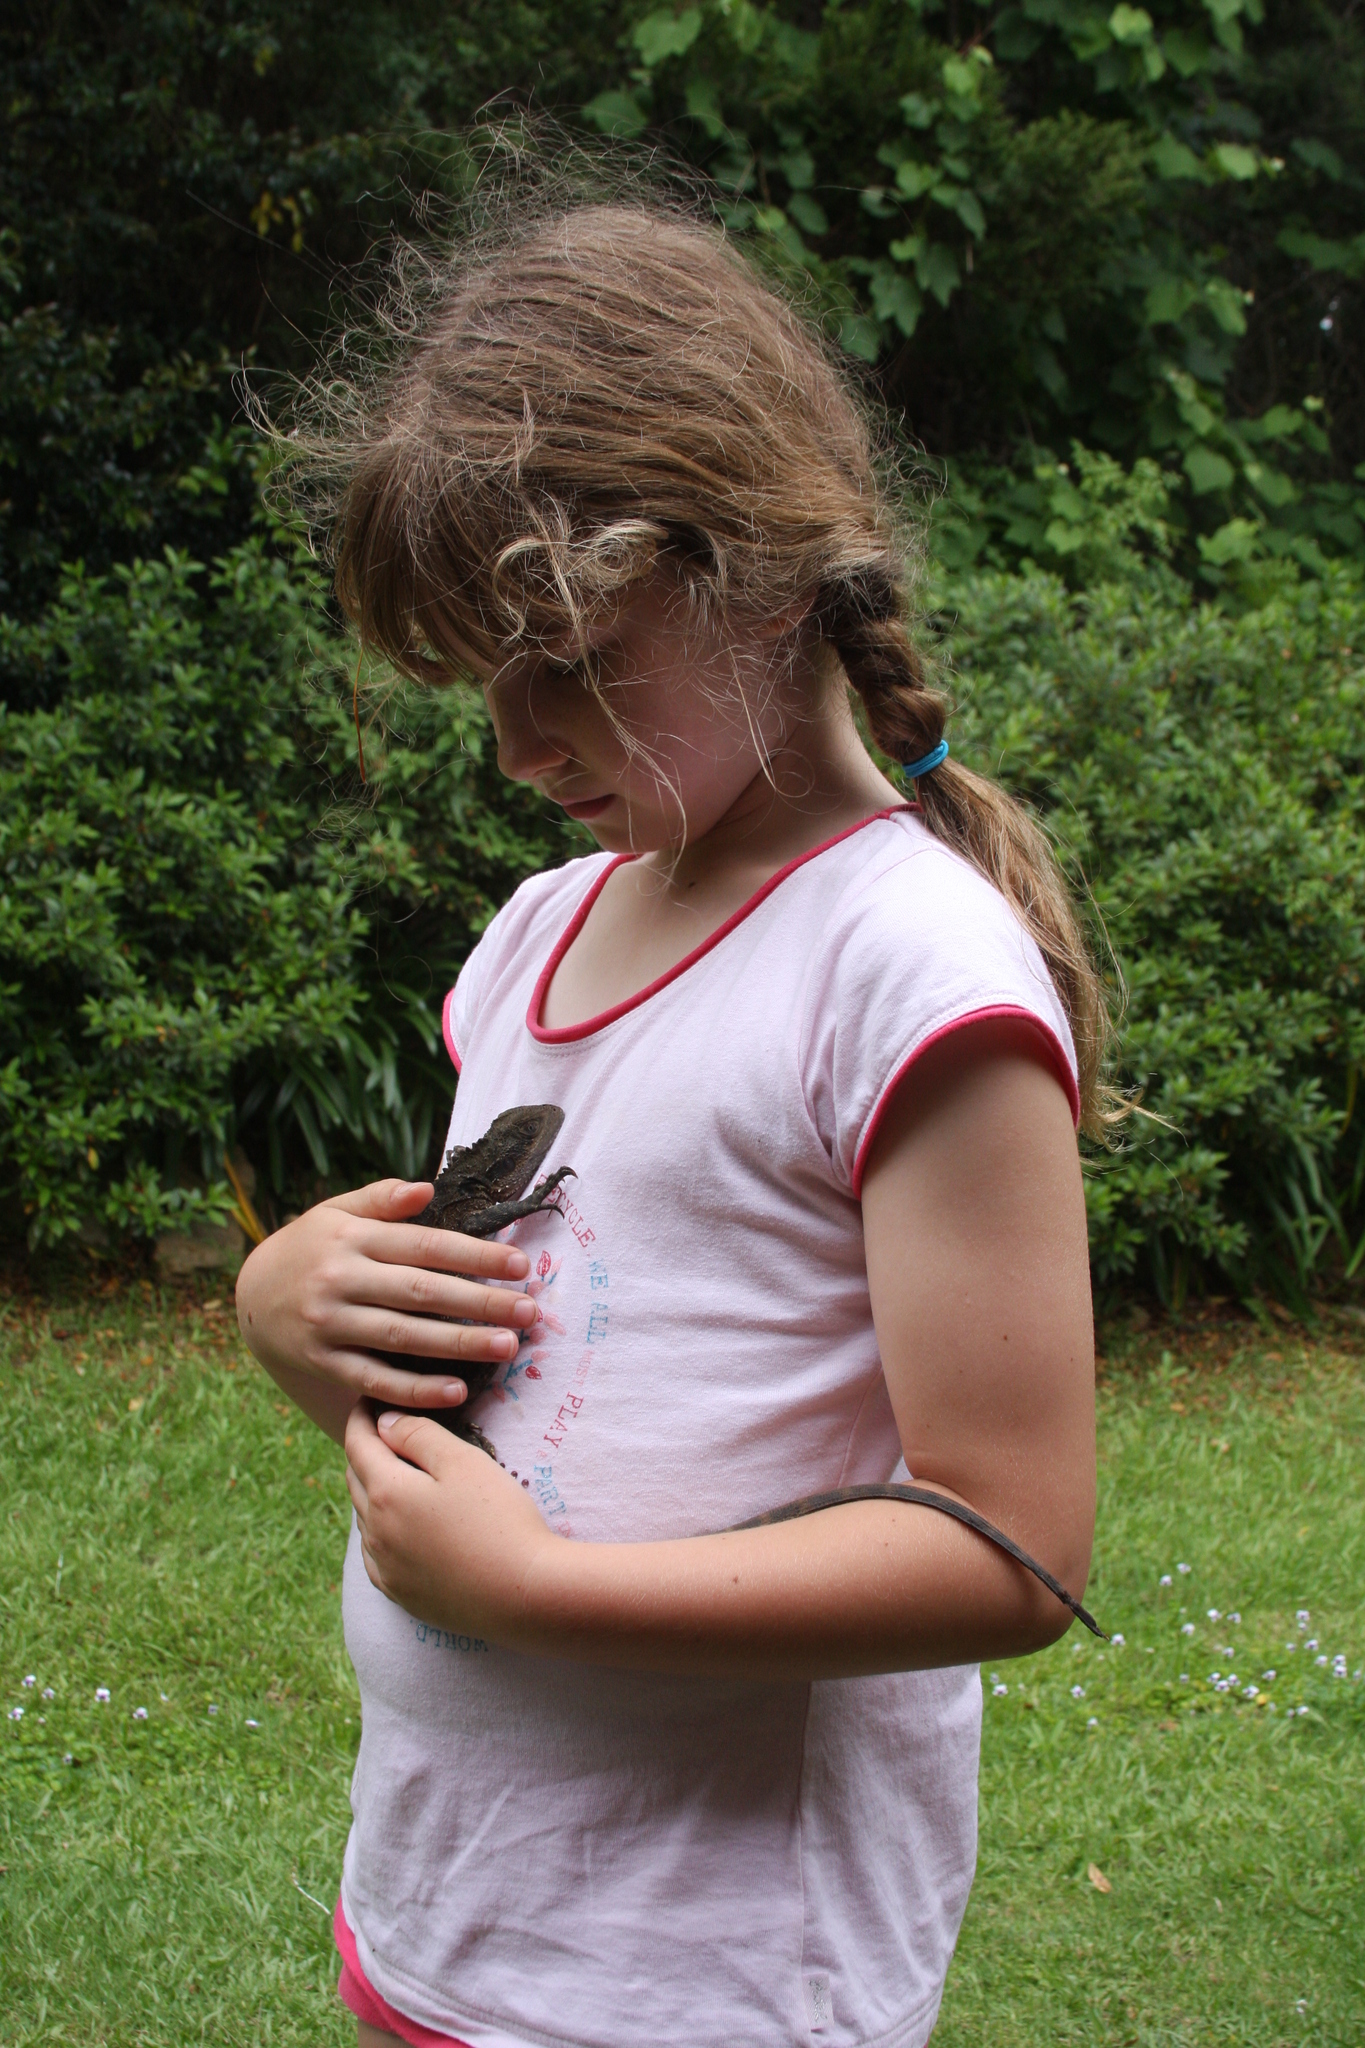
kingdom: Animalia
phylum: Chordata
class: Squamata
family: Agamidae
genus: Intellagama
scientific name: Intellagama lesueurii
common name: Eastern water dragon
